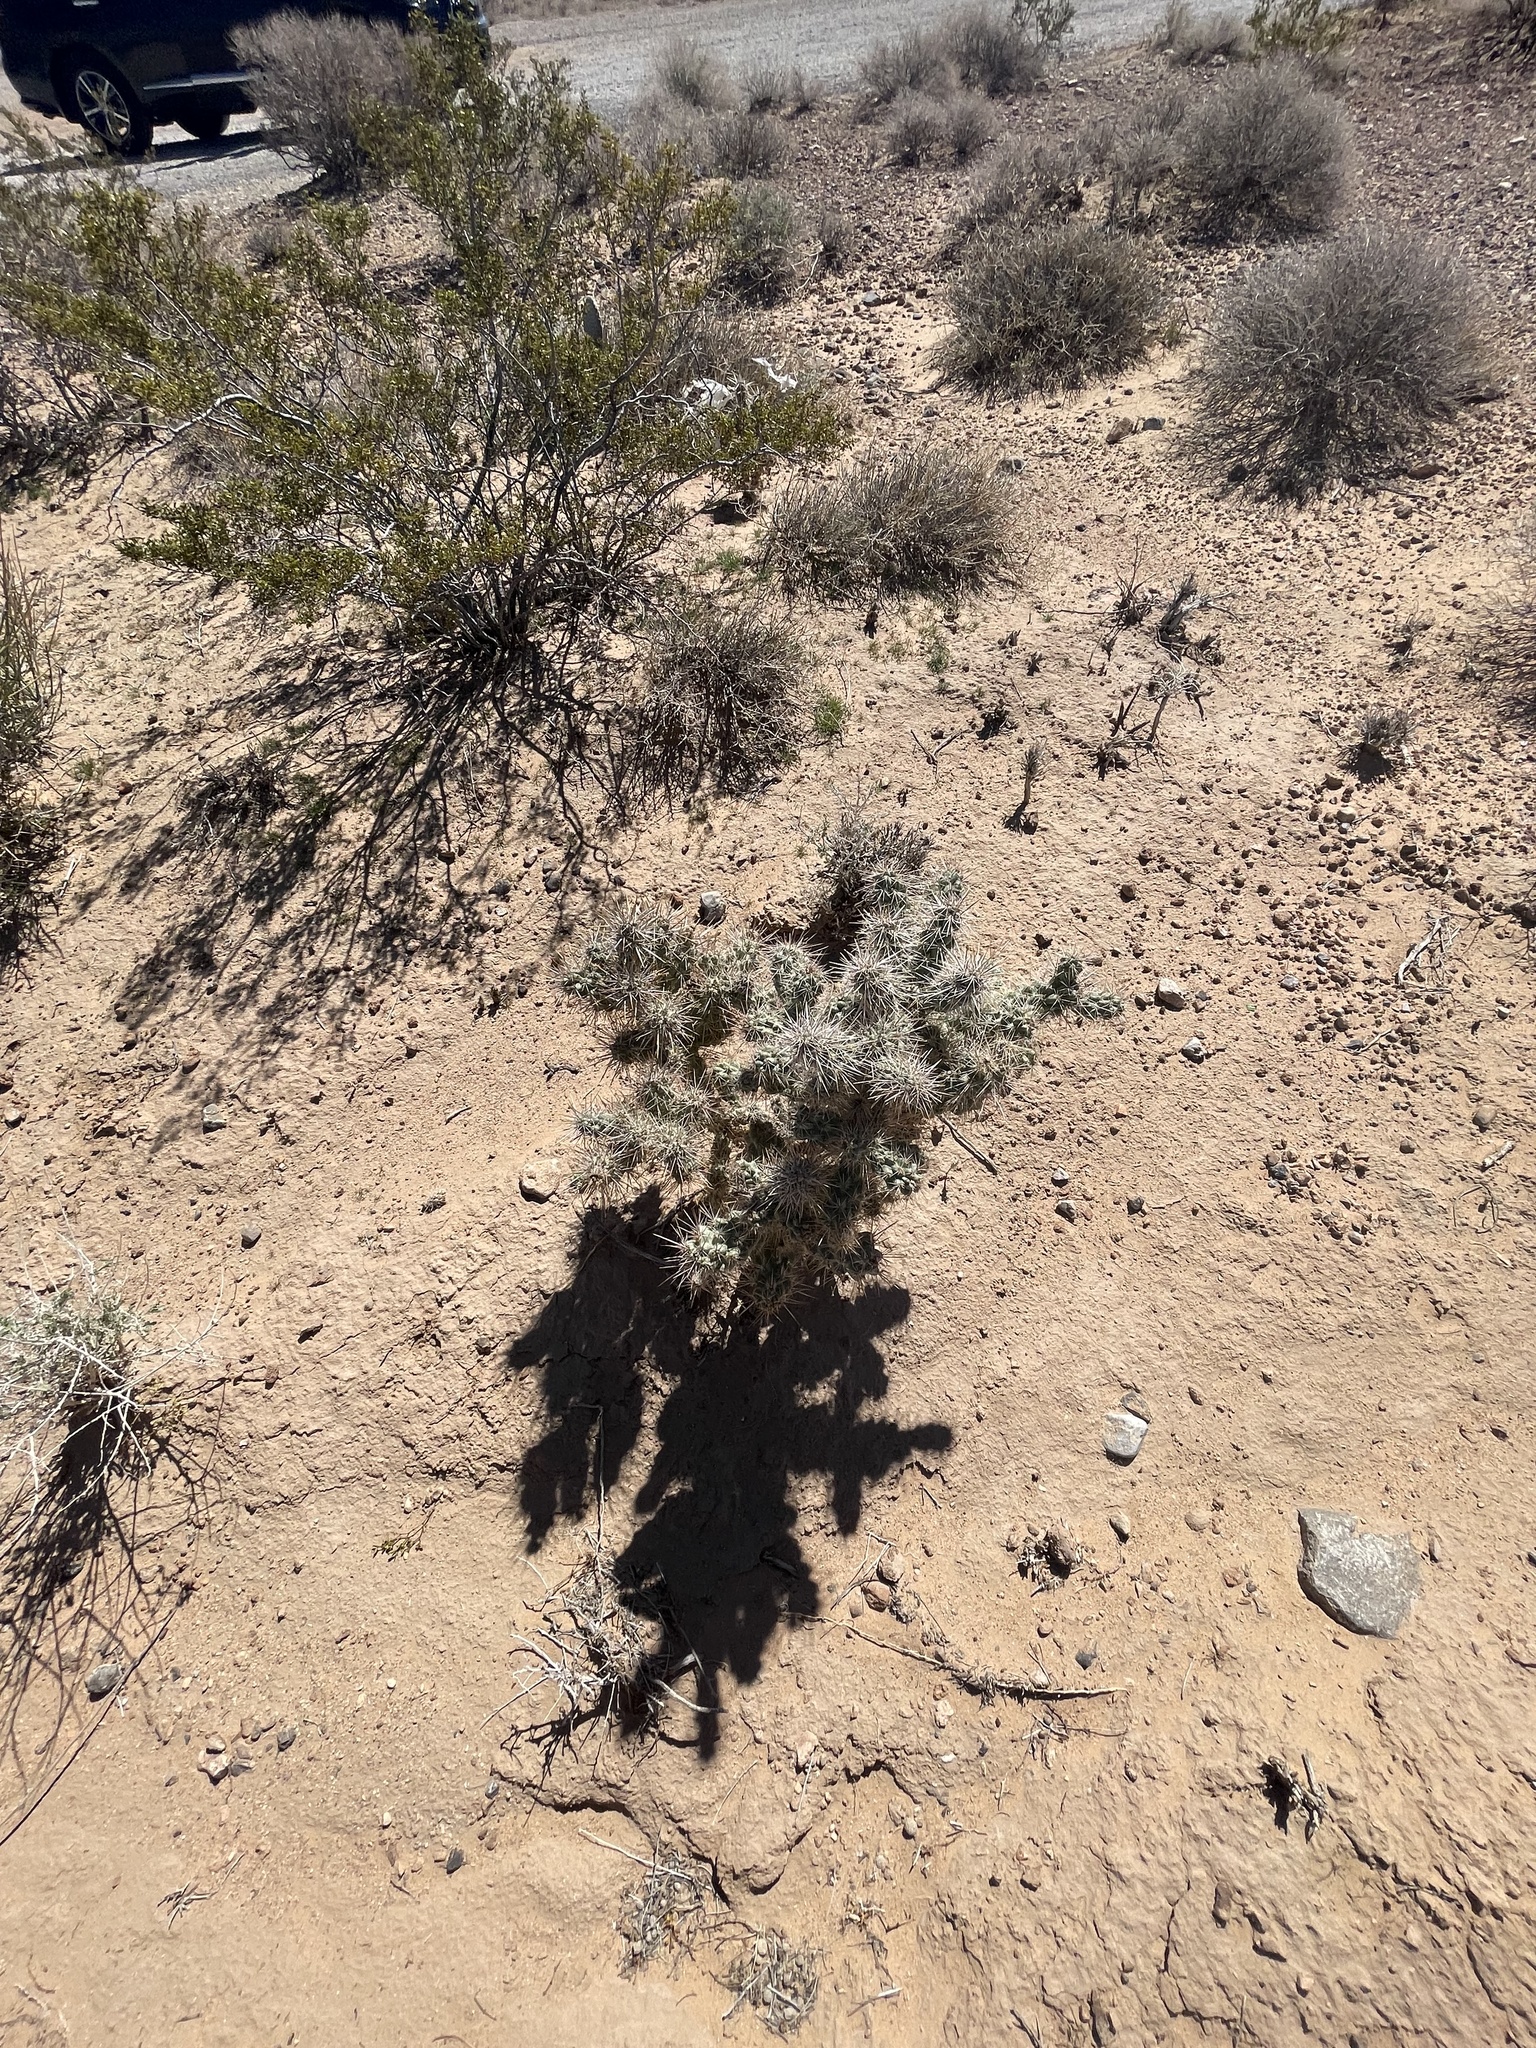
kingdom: Plantae
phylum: Tracheophyta
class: Magnoliopsida
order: Caryophyllales
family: Cactaceae
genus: Cylindropuntia
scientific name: Cylindropuntia echinocarpa
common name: Ground cholla
